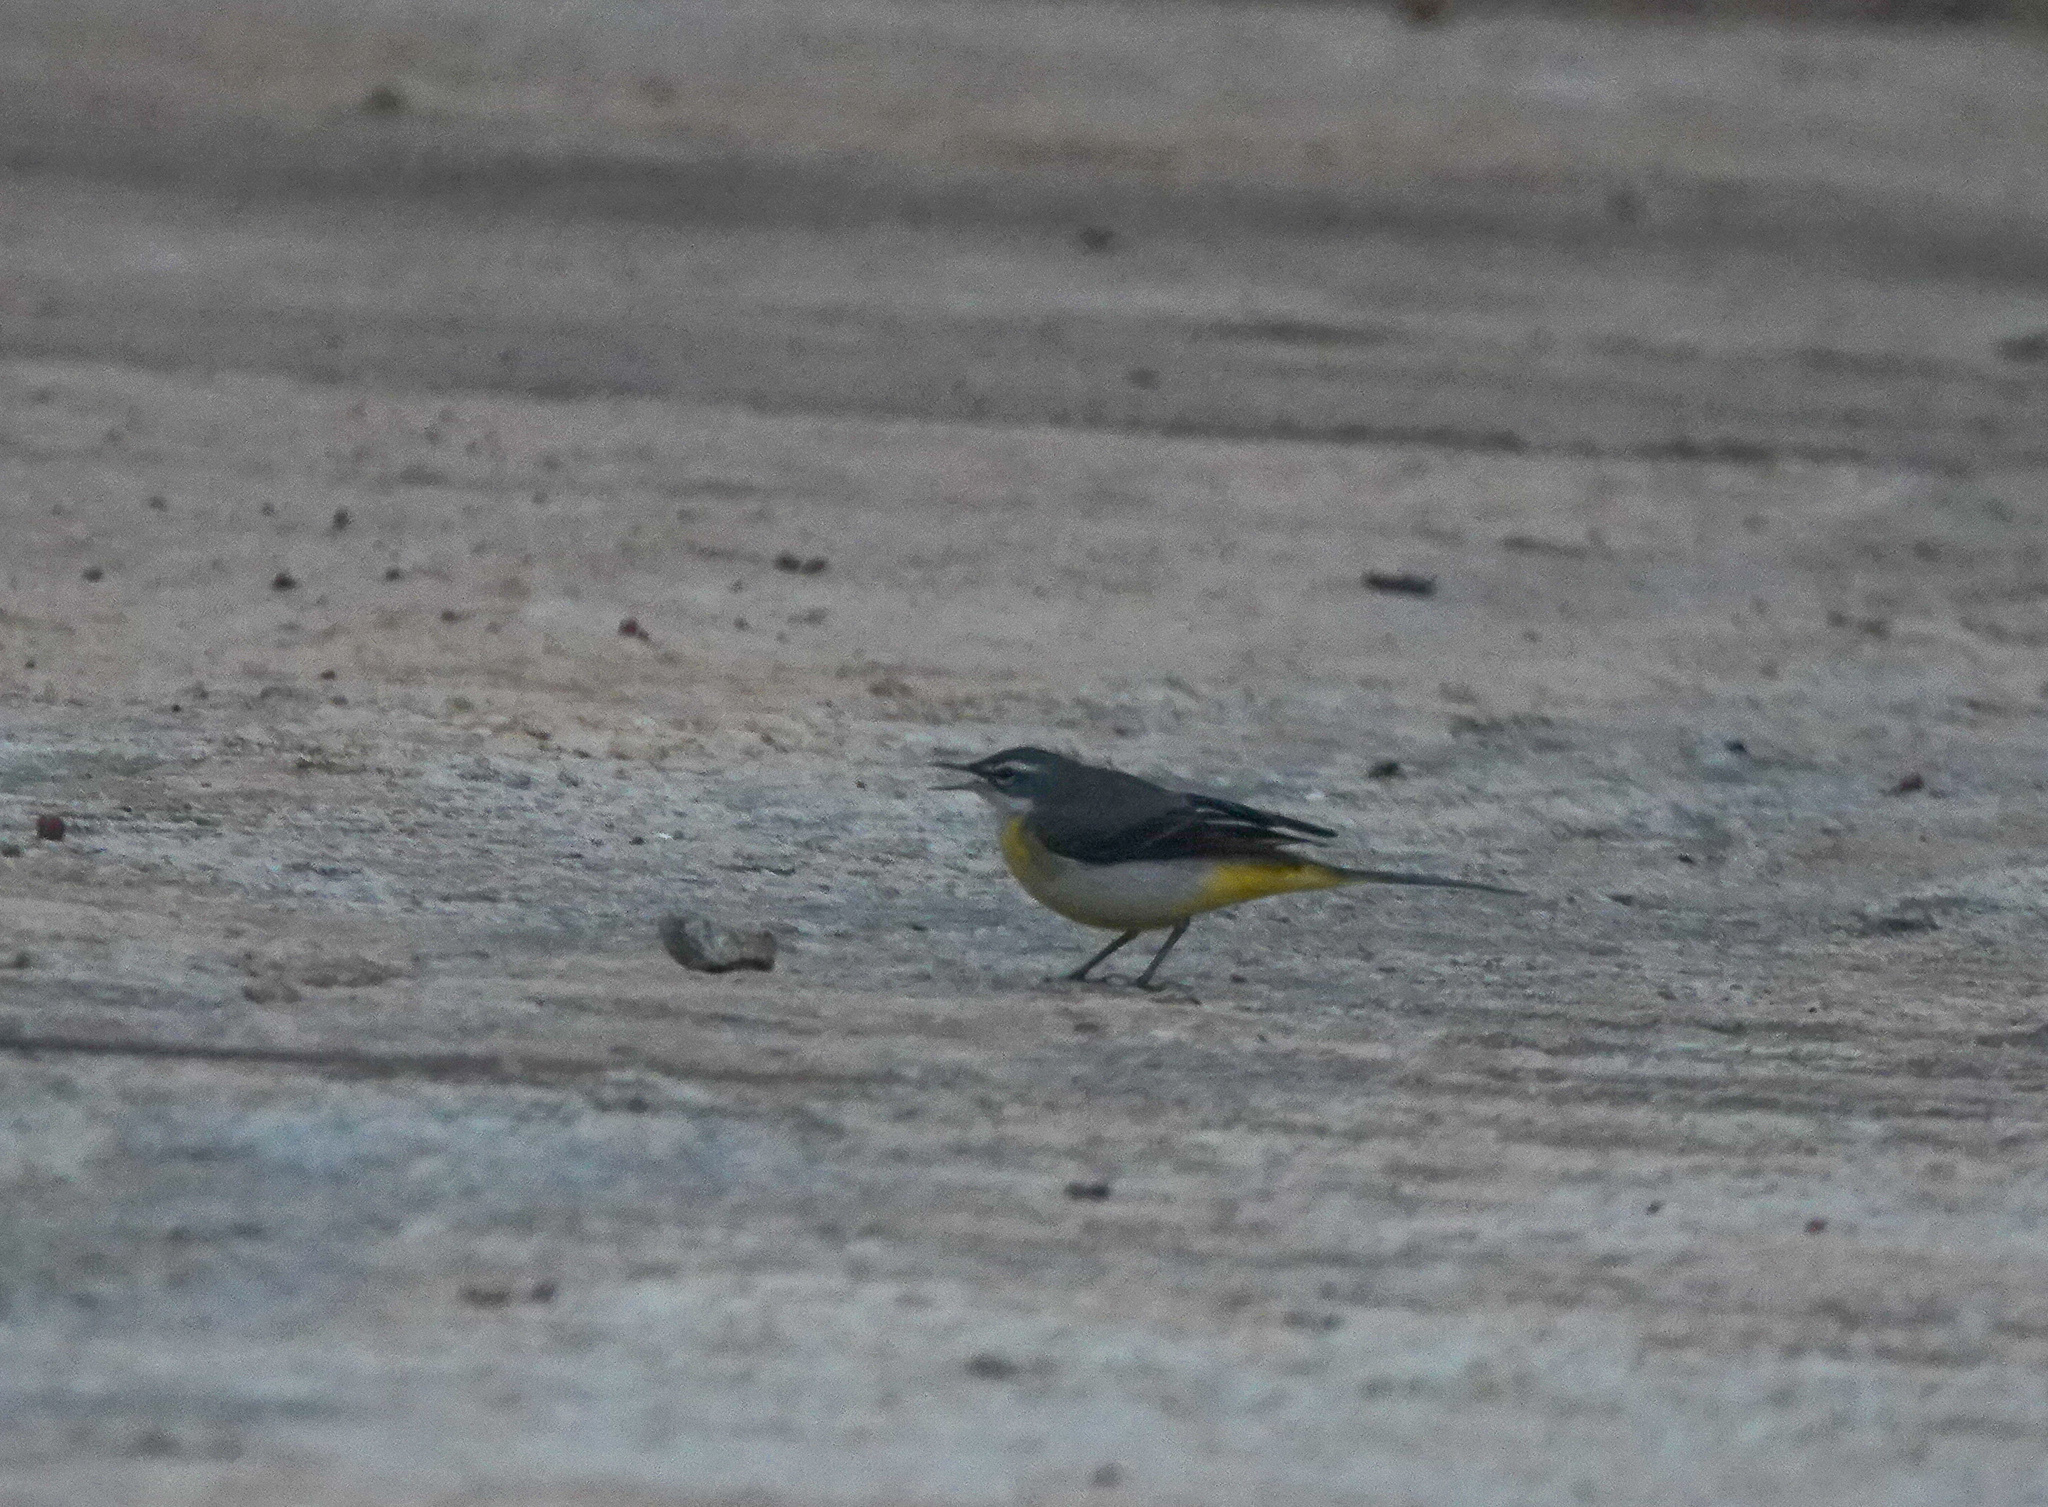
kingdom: Animalia
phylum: Chordata
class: Aves
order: Passeriformes
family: Motacillidae
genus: Motacilla
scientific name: Motacilla cinerea
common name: Grey wagtail
